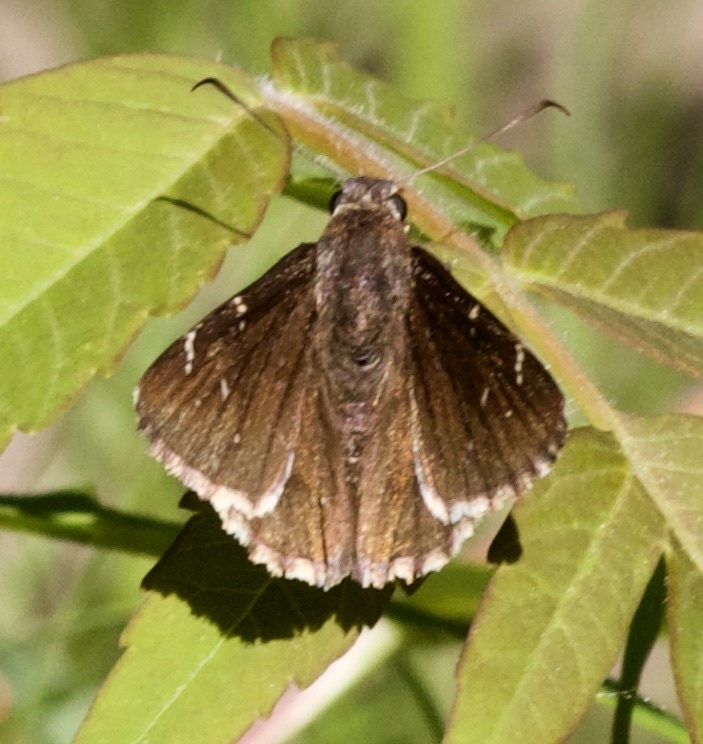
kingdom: Animalia
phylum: Arthropoda
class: Insecta
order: Lepidoptera
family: Hesperiidae
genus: Thorybes
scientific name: Thorybes pylades
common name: Northern cloudywing
